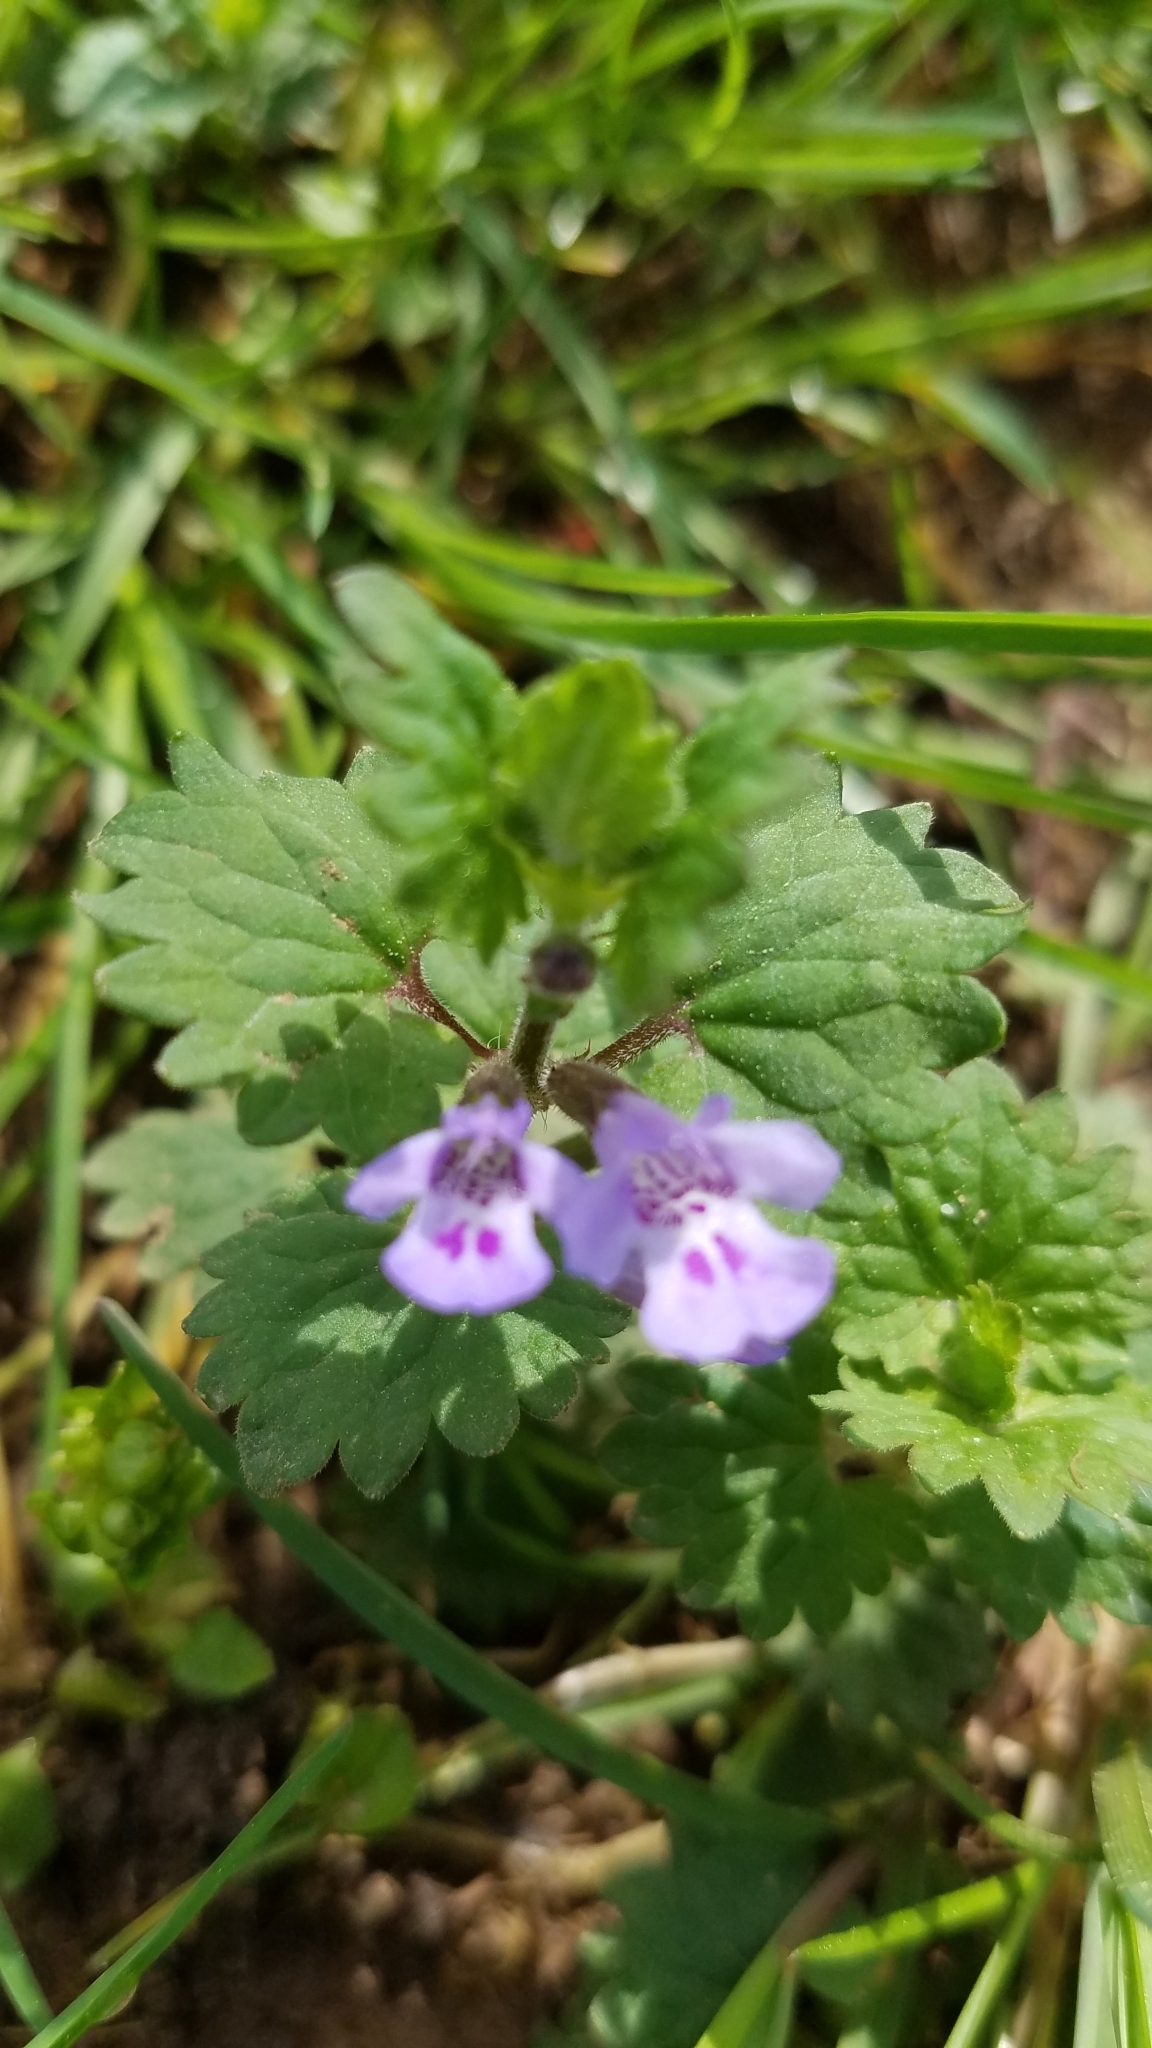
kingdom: Plantae
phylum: Tracheophyta
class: Magnoliopsida
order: Lamiales
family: Lamiaceae
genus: Glechoma
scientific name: Glechoma hederacea
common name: Ground ivy
